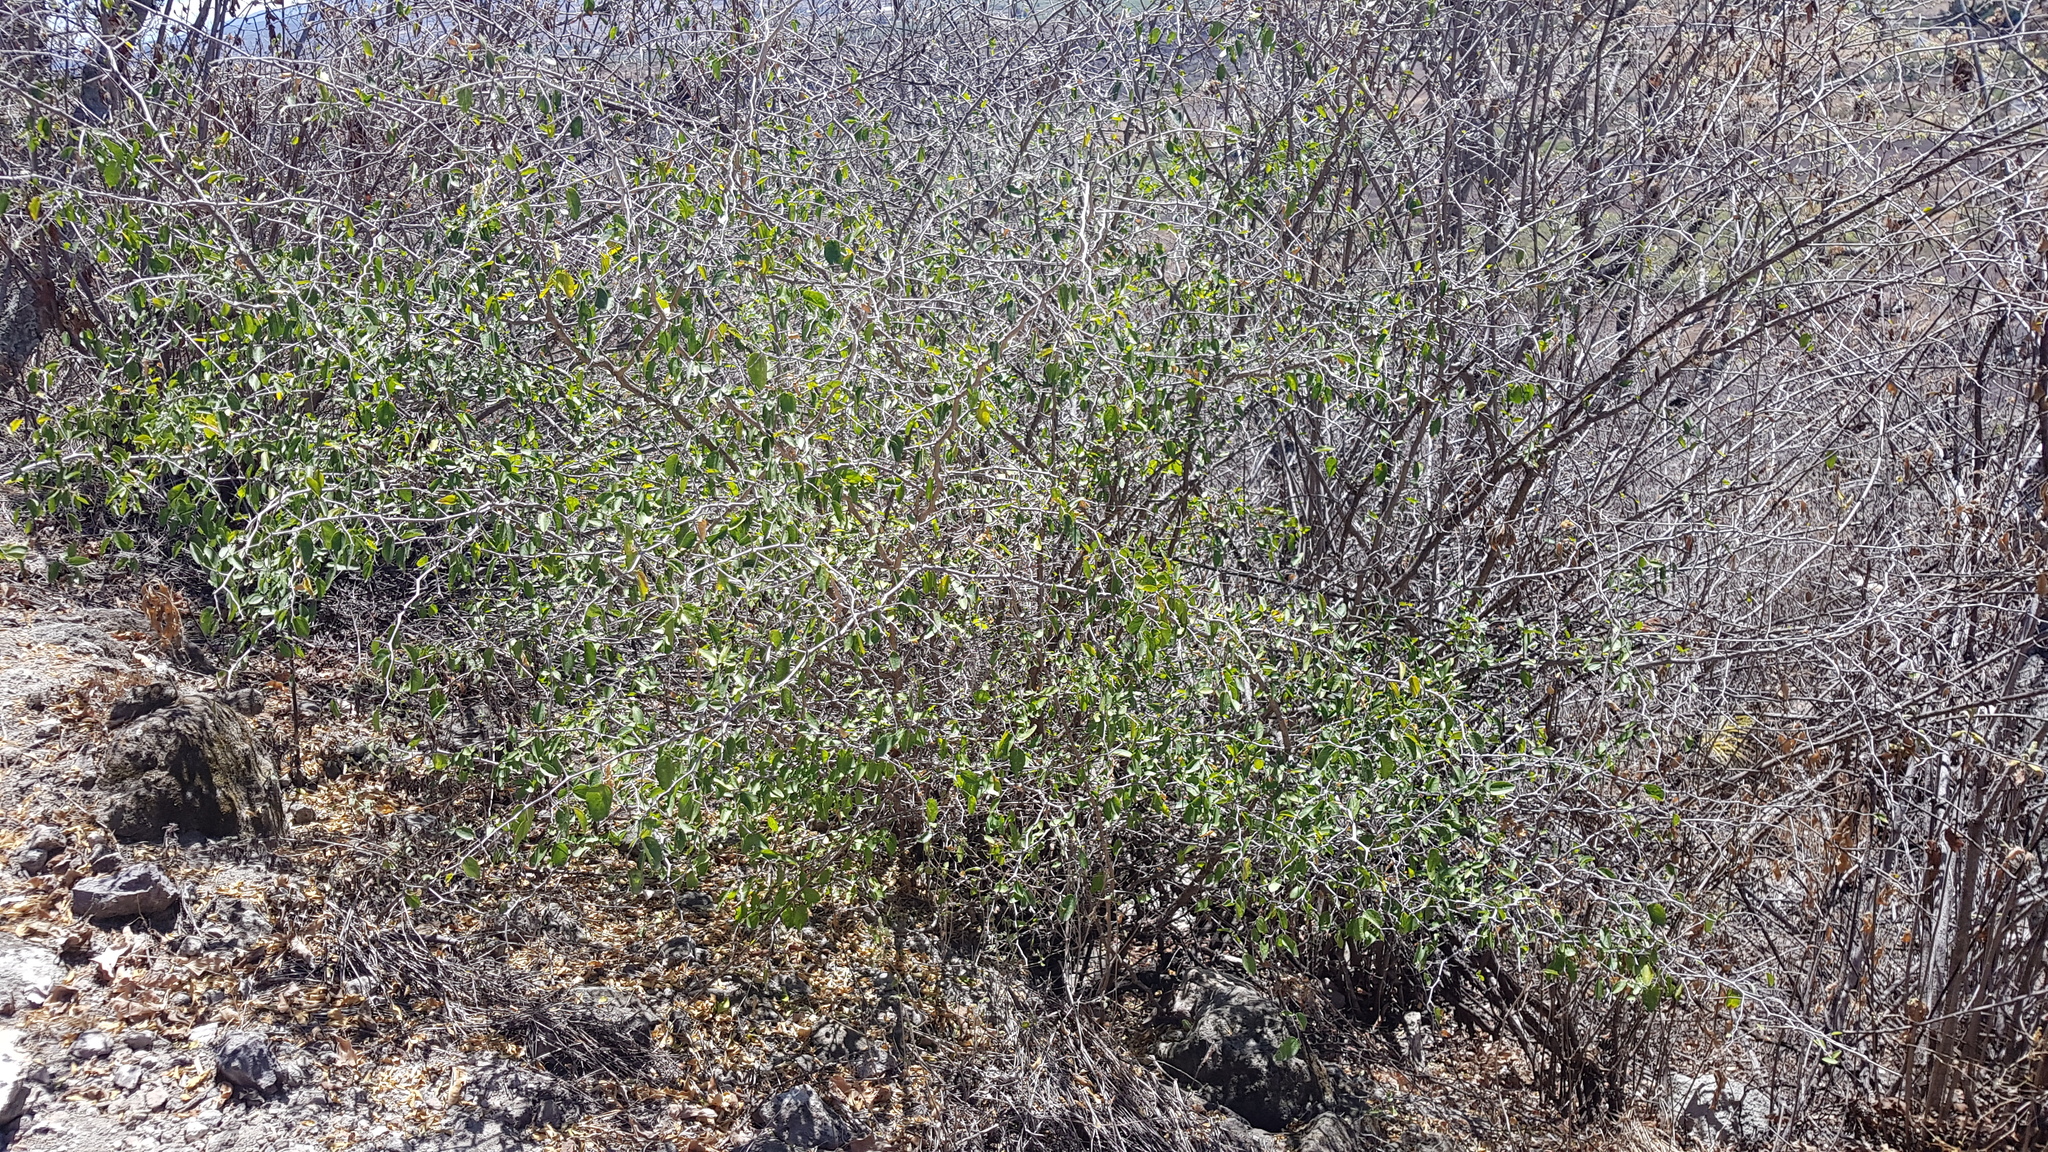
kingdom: Plantae
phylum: Tracheophyta
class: Magnoliopsida
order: Rosales
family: Cannabaceae
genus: Celtis
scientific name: Celtis pallida
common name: Desert hackberry
